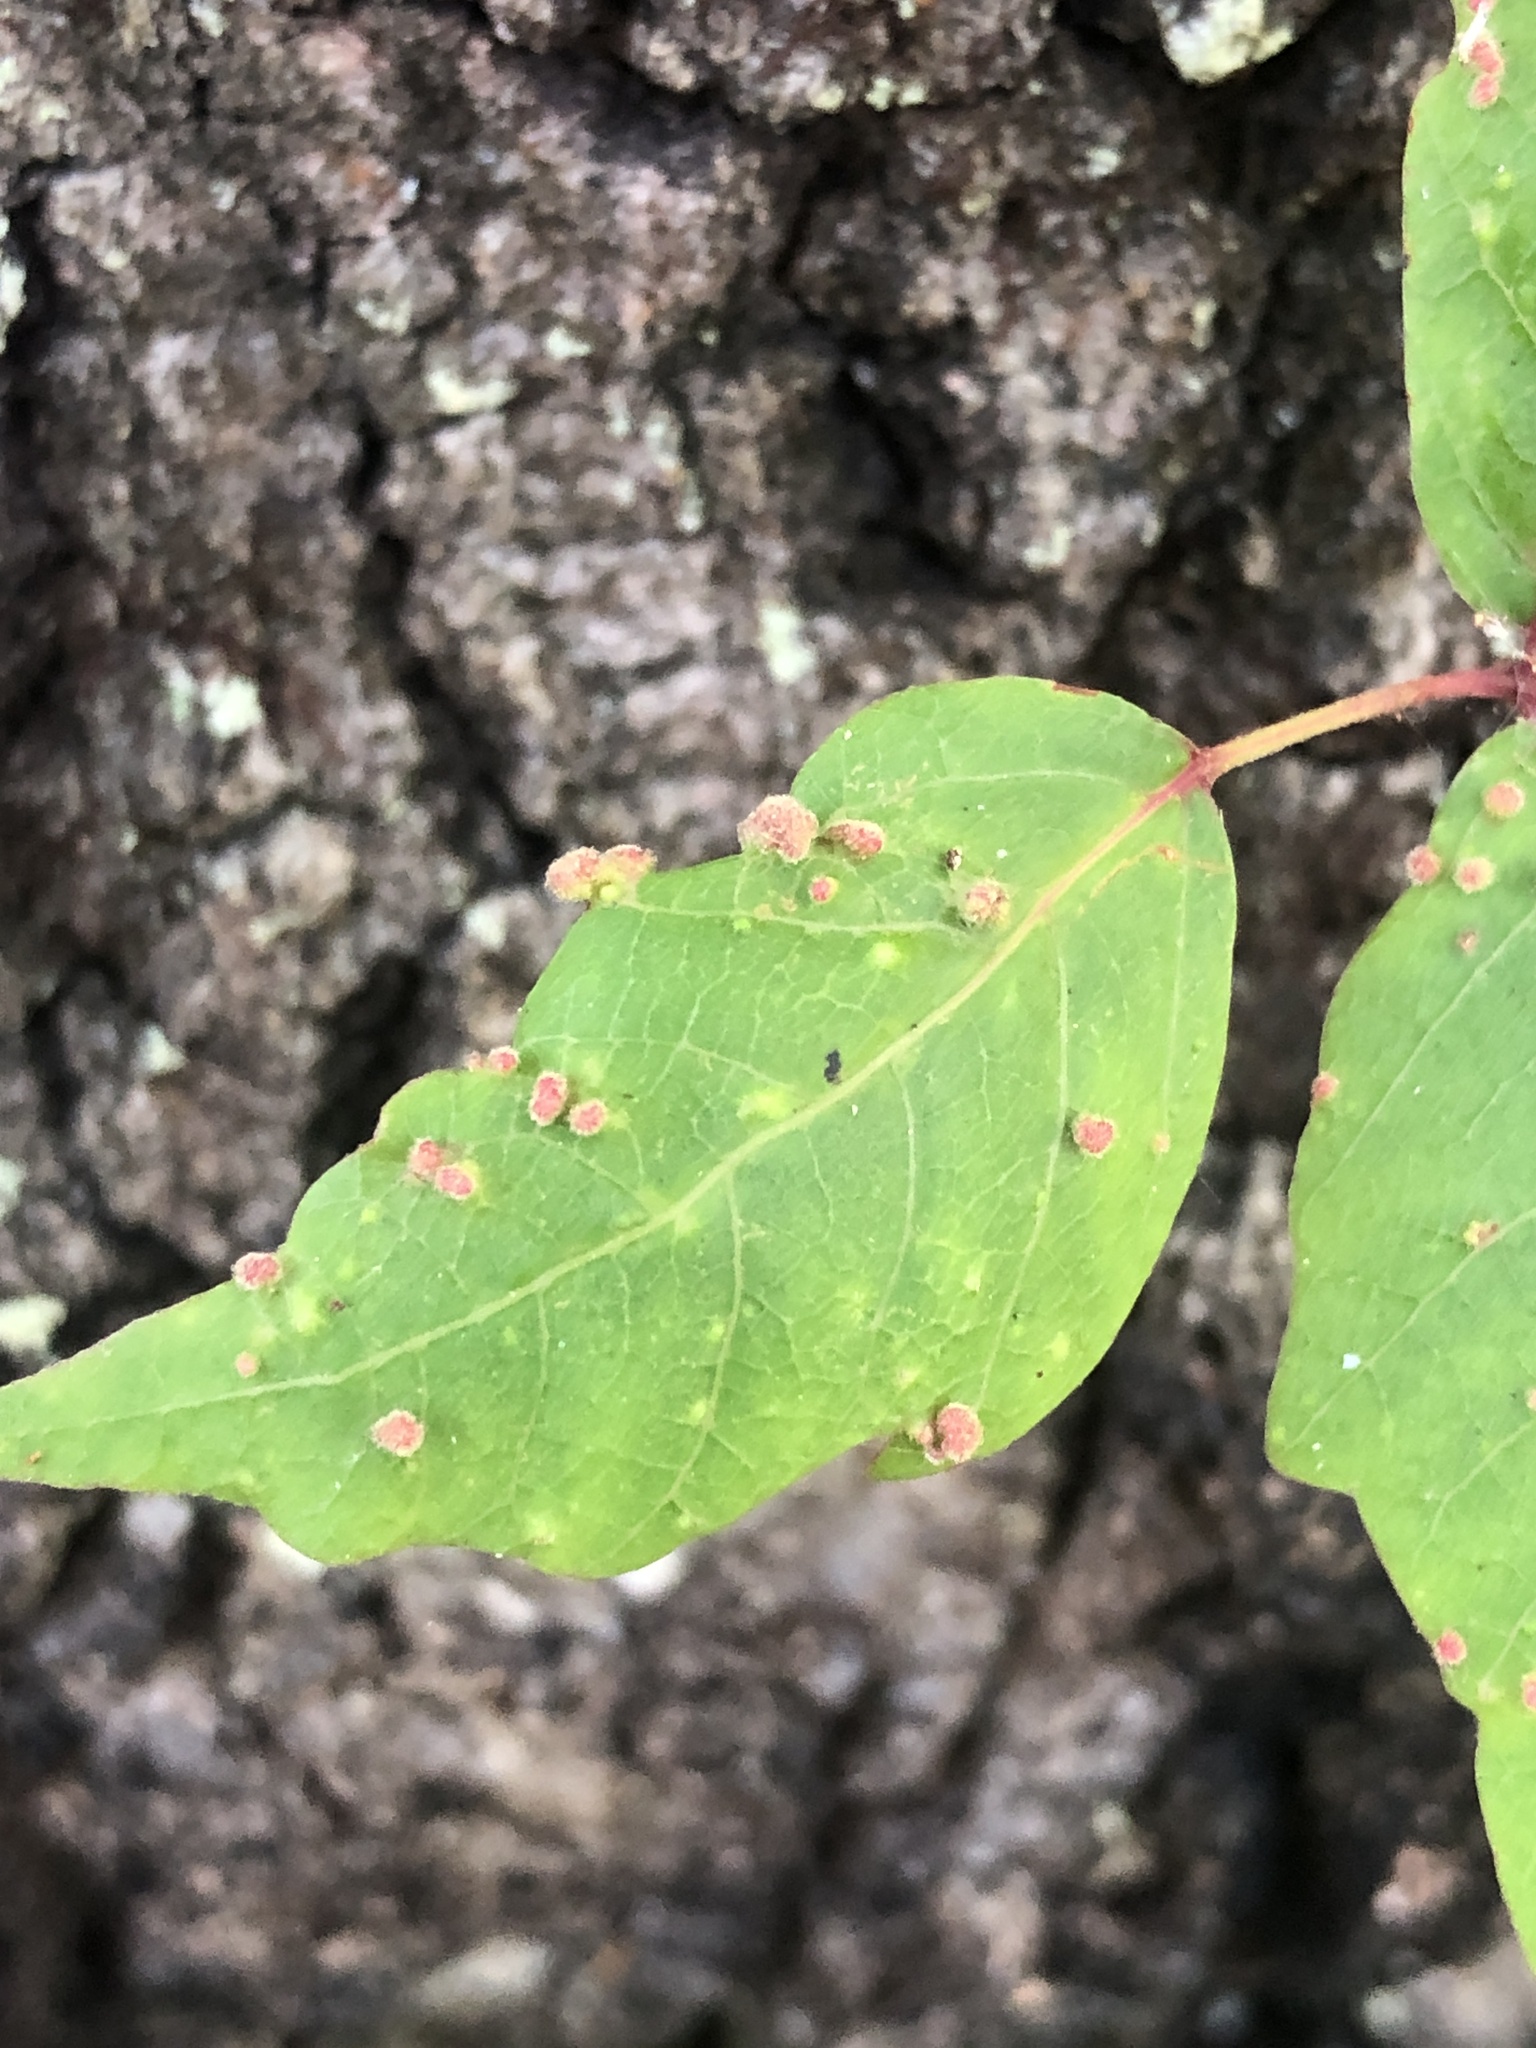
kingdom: Animalia
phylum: Arthropoda
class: Arachnida
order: Trombidiformes
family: Eriophyidae
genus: Aculops
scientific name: Aculops
